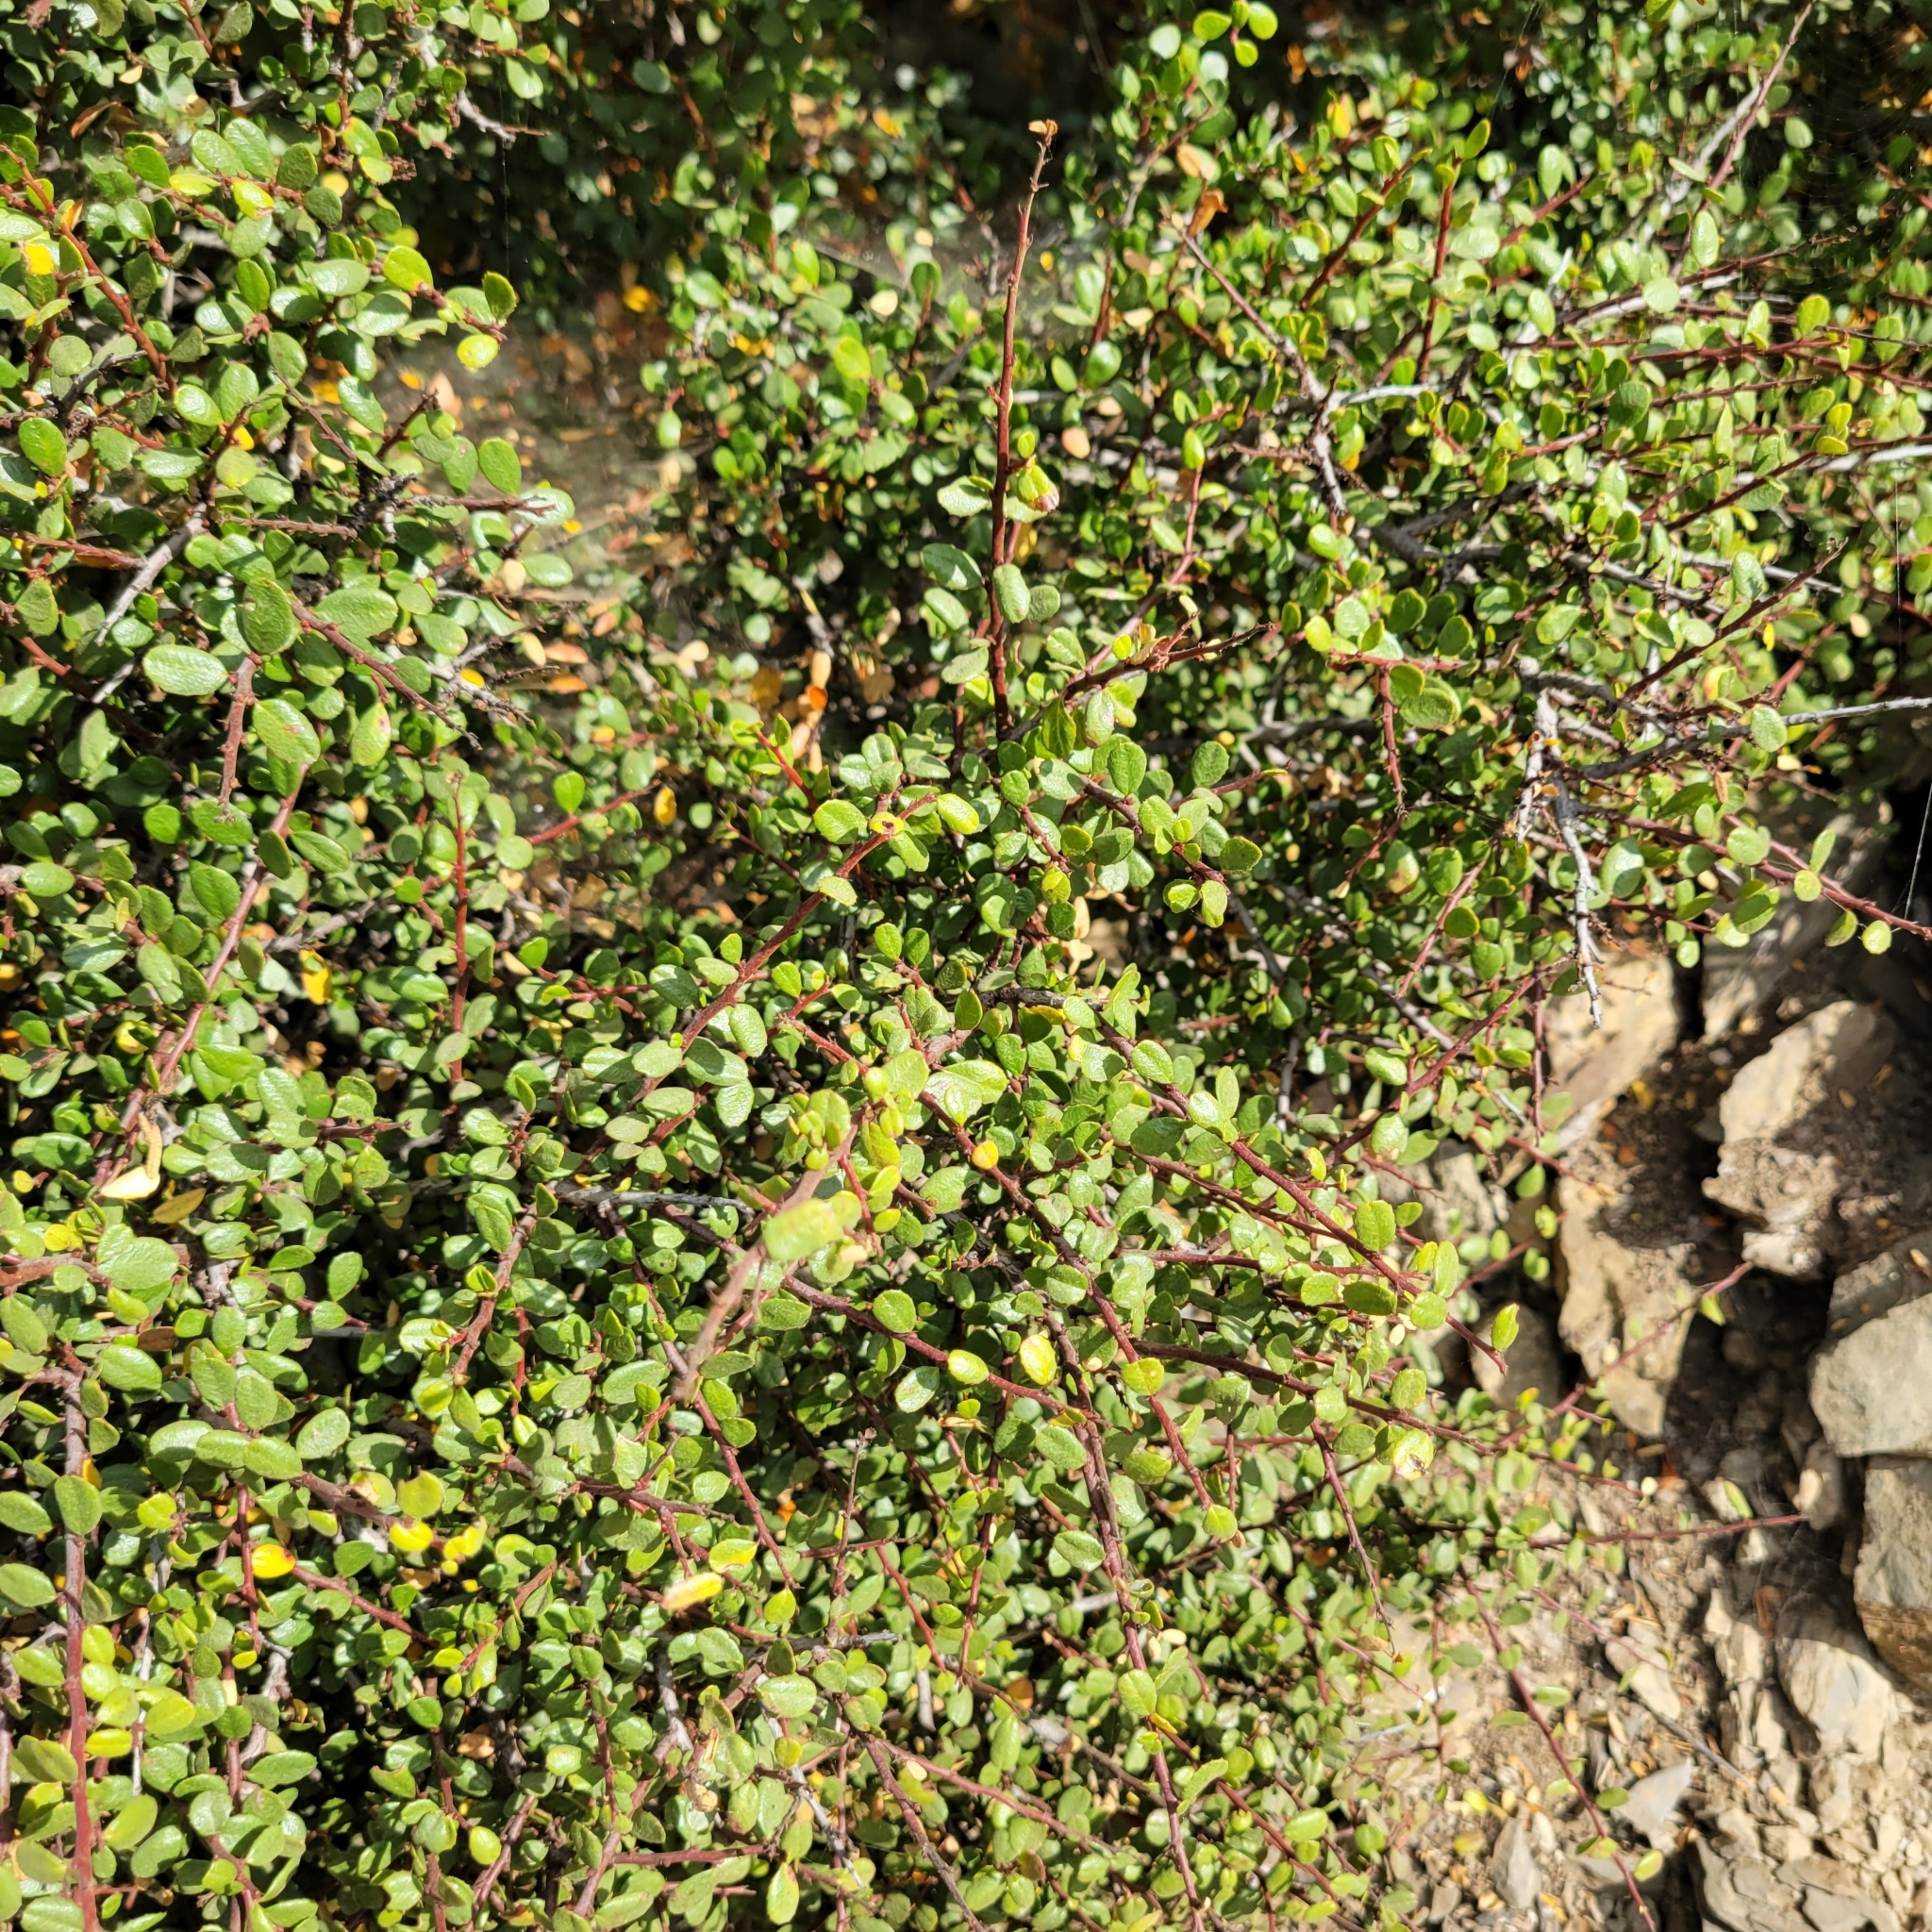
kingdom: Plantae
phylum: Tracheophyta
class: Magnoliopsida
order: Rosales
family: Rhamnaceae
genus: Endotropis
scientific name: Endotropis crocea
